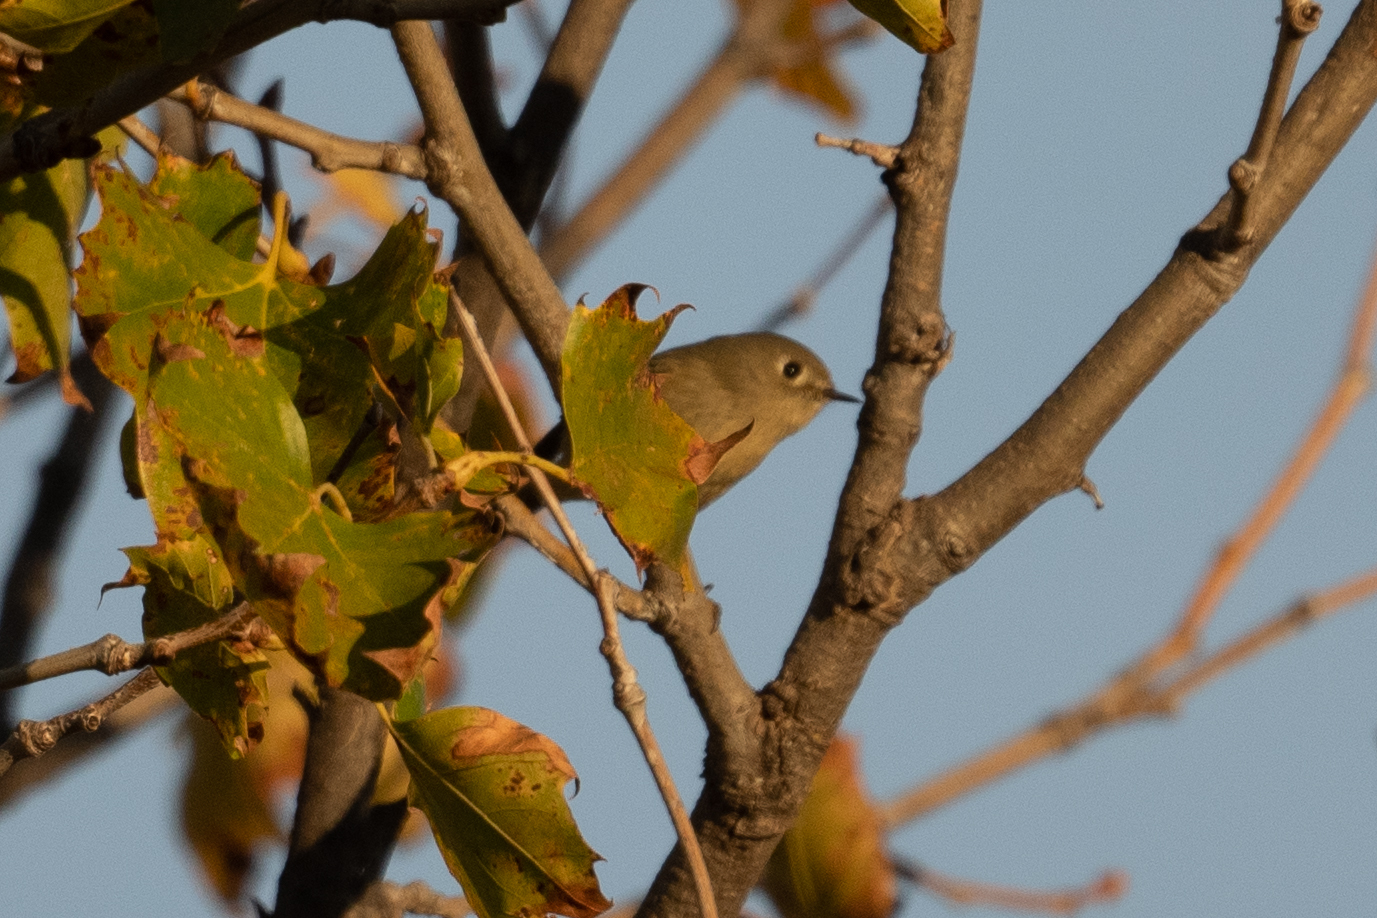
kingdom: Animalia
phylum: Chordata
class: Aves
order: Passeriformes
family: Regulidae
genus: Regulus
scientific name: Regulus calendula
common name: Ruby-crowned kinglet
